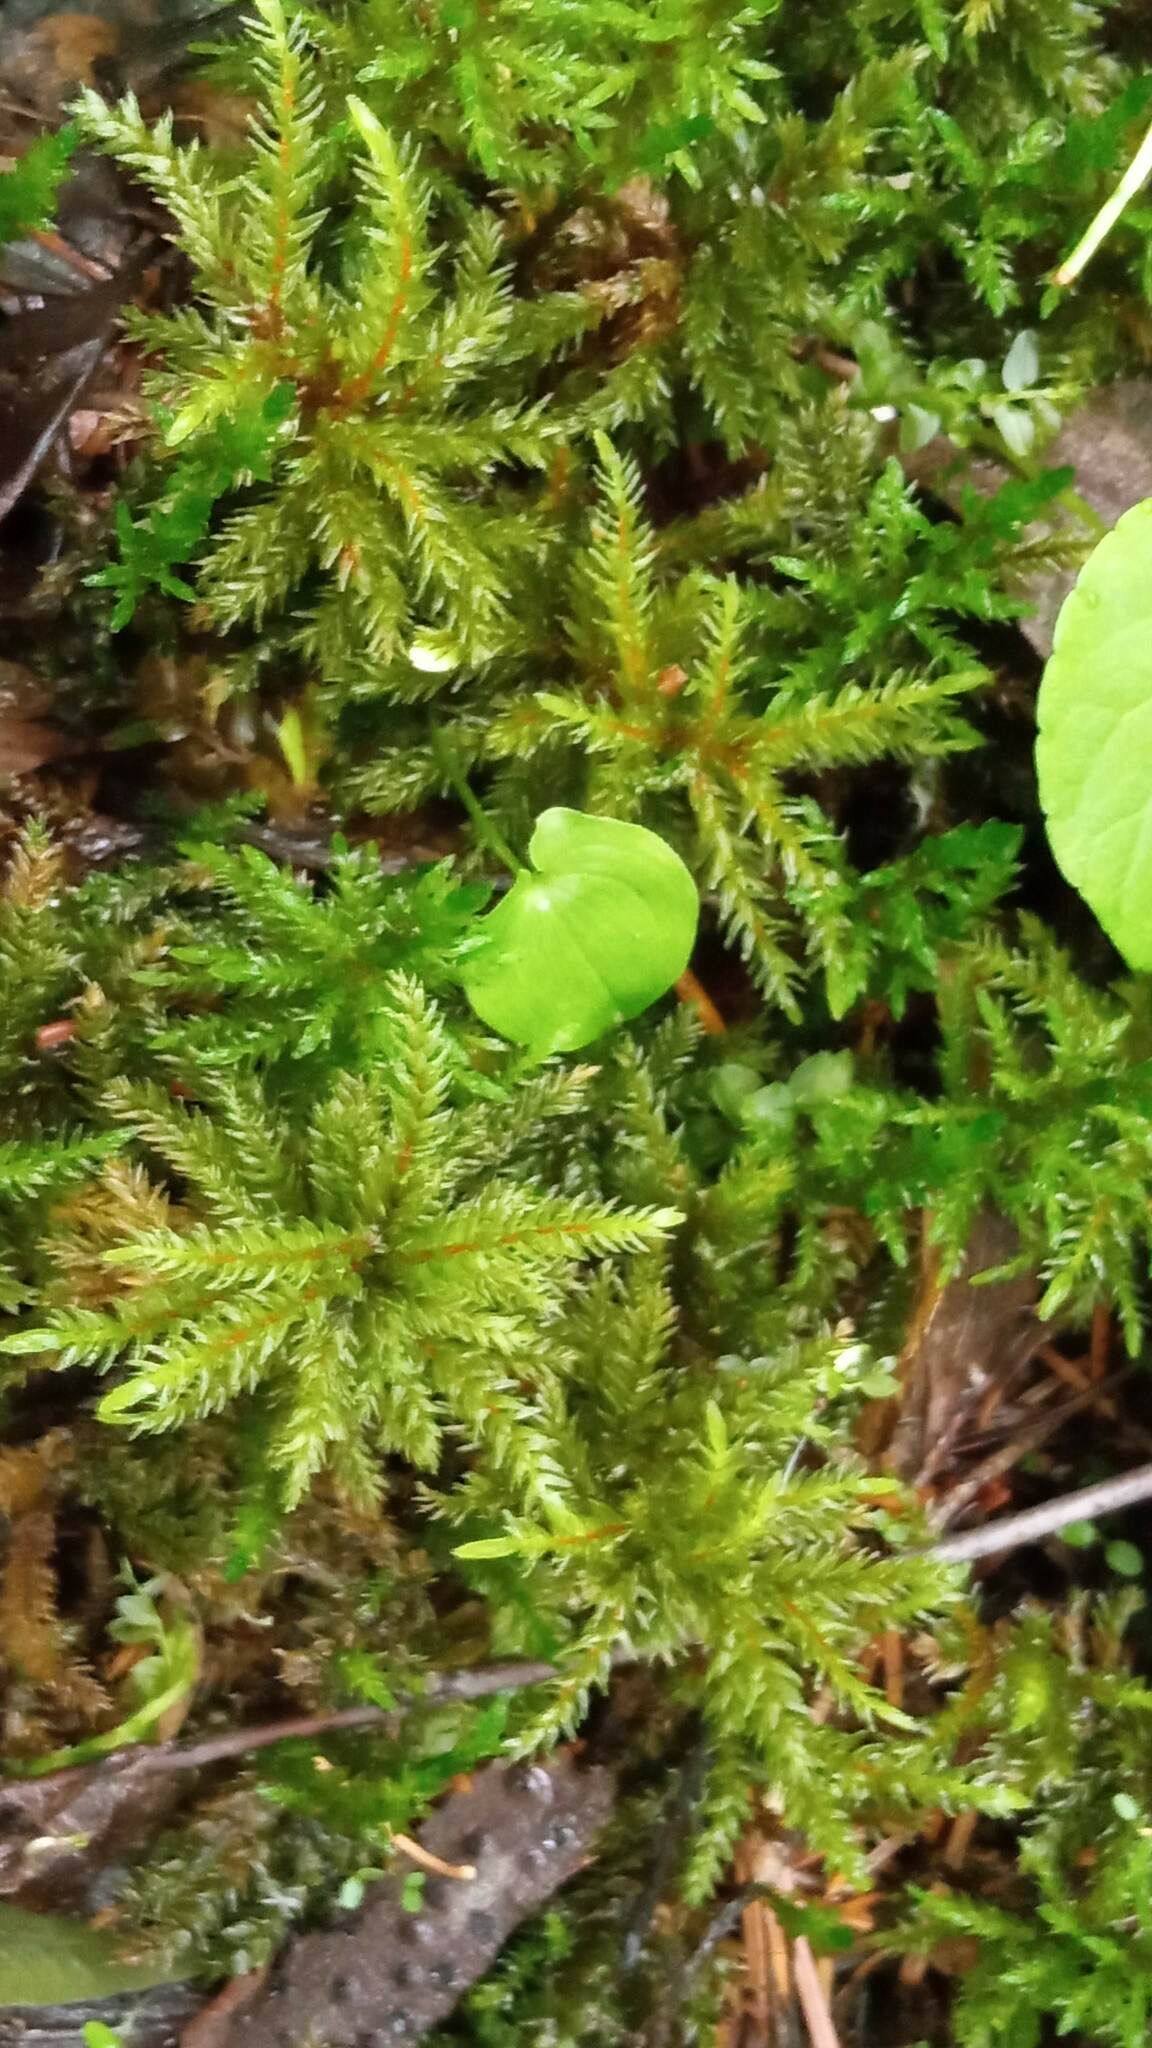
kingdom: Plantae
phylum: Bryophyta
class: Bryopsida
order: Hypnales
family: Climaciaceae
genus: Climacium
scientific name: Climacium dendroides
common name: Northern tree moss
